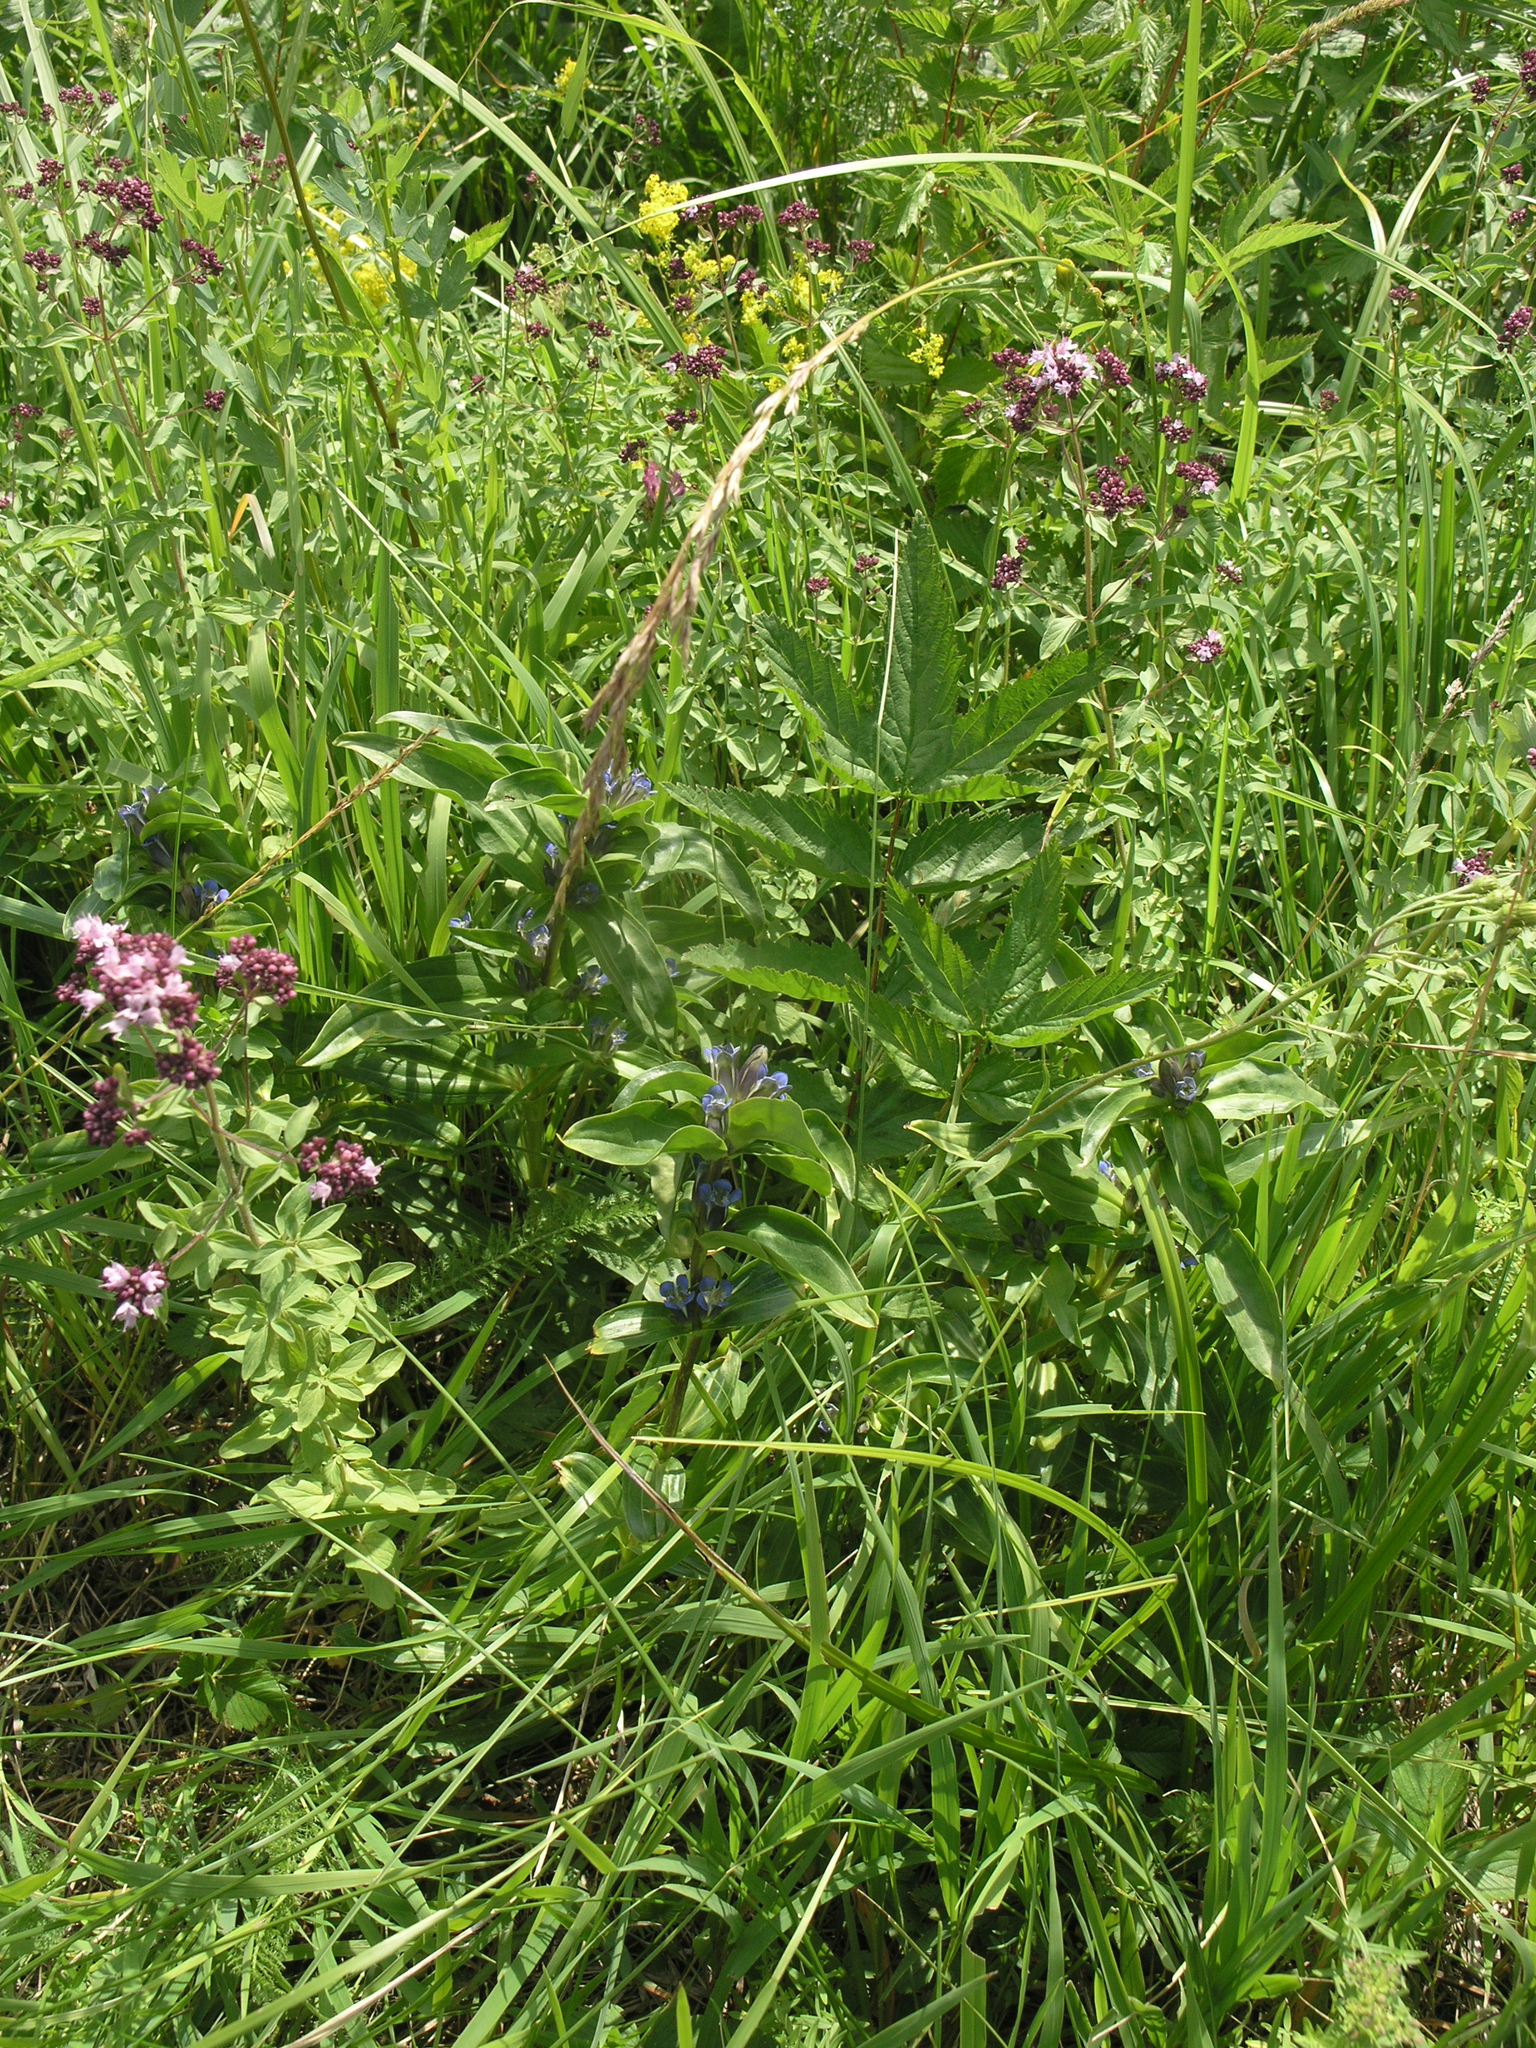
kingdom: Plantae
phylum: Tracheophyta
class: Magnoliopsida
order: Gentianales
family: Gentianaceae
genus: Gentiana
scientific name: Gentiana cruciata
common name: Cross gentian
